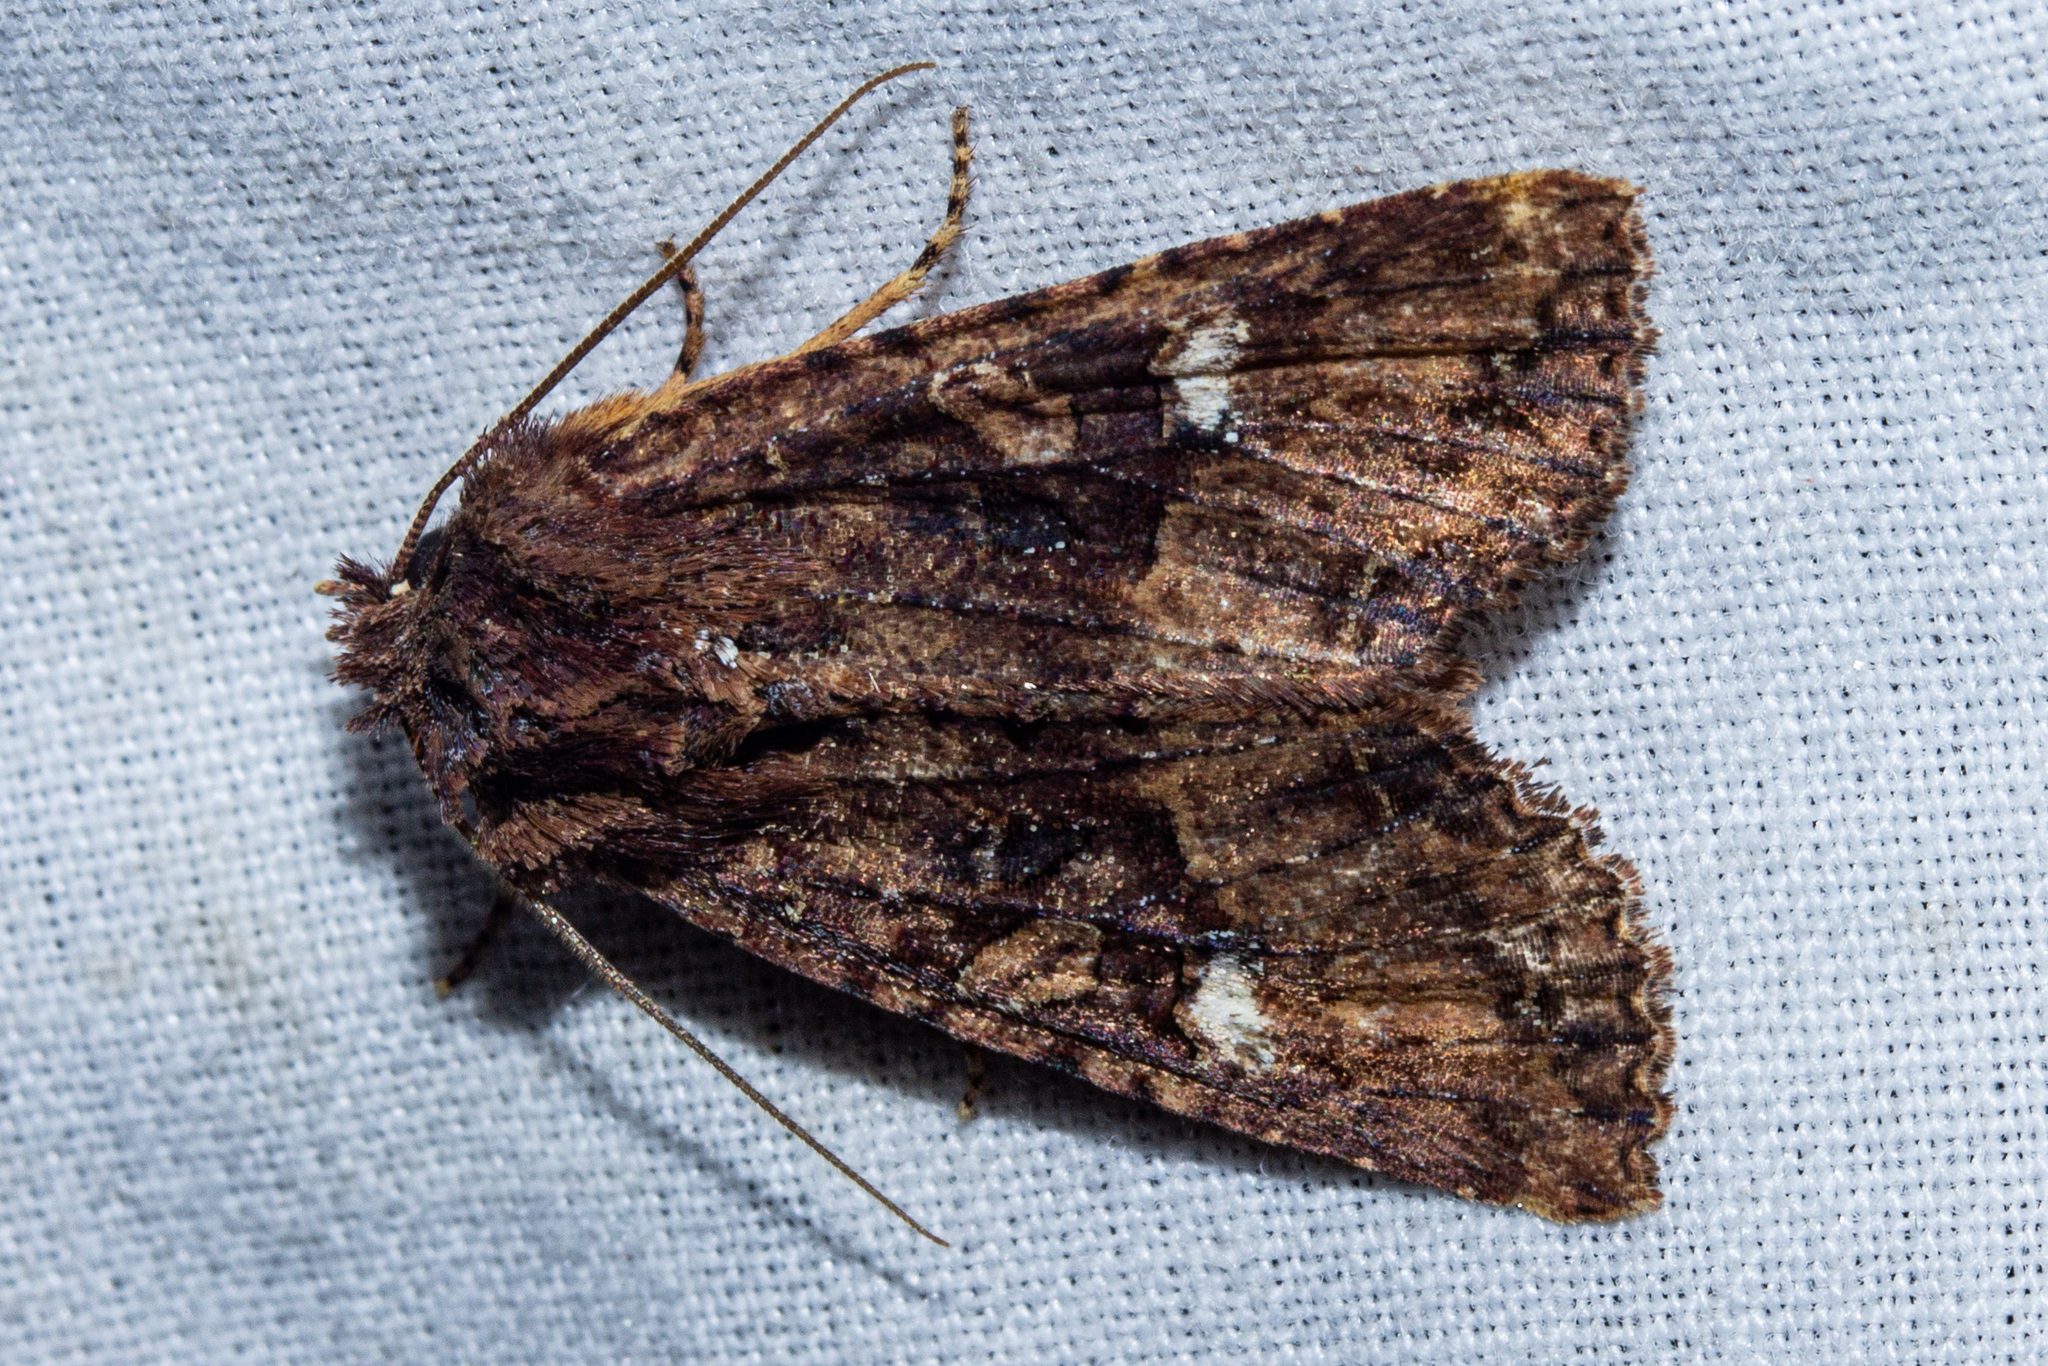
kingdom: Animalia
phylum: Arthropoda
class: Insecta
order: Lepidoptera
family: Noctuidae
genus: Meterana
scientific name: Meterana vitiosa
